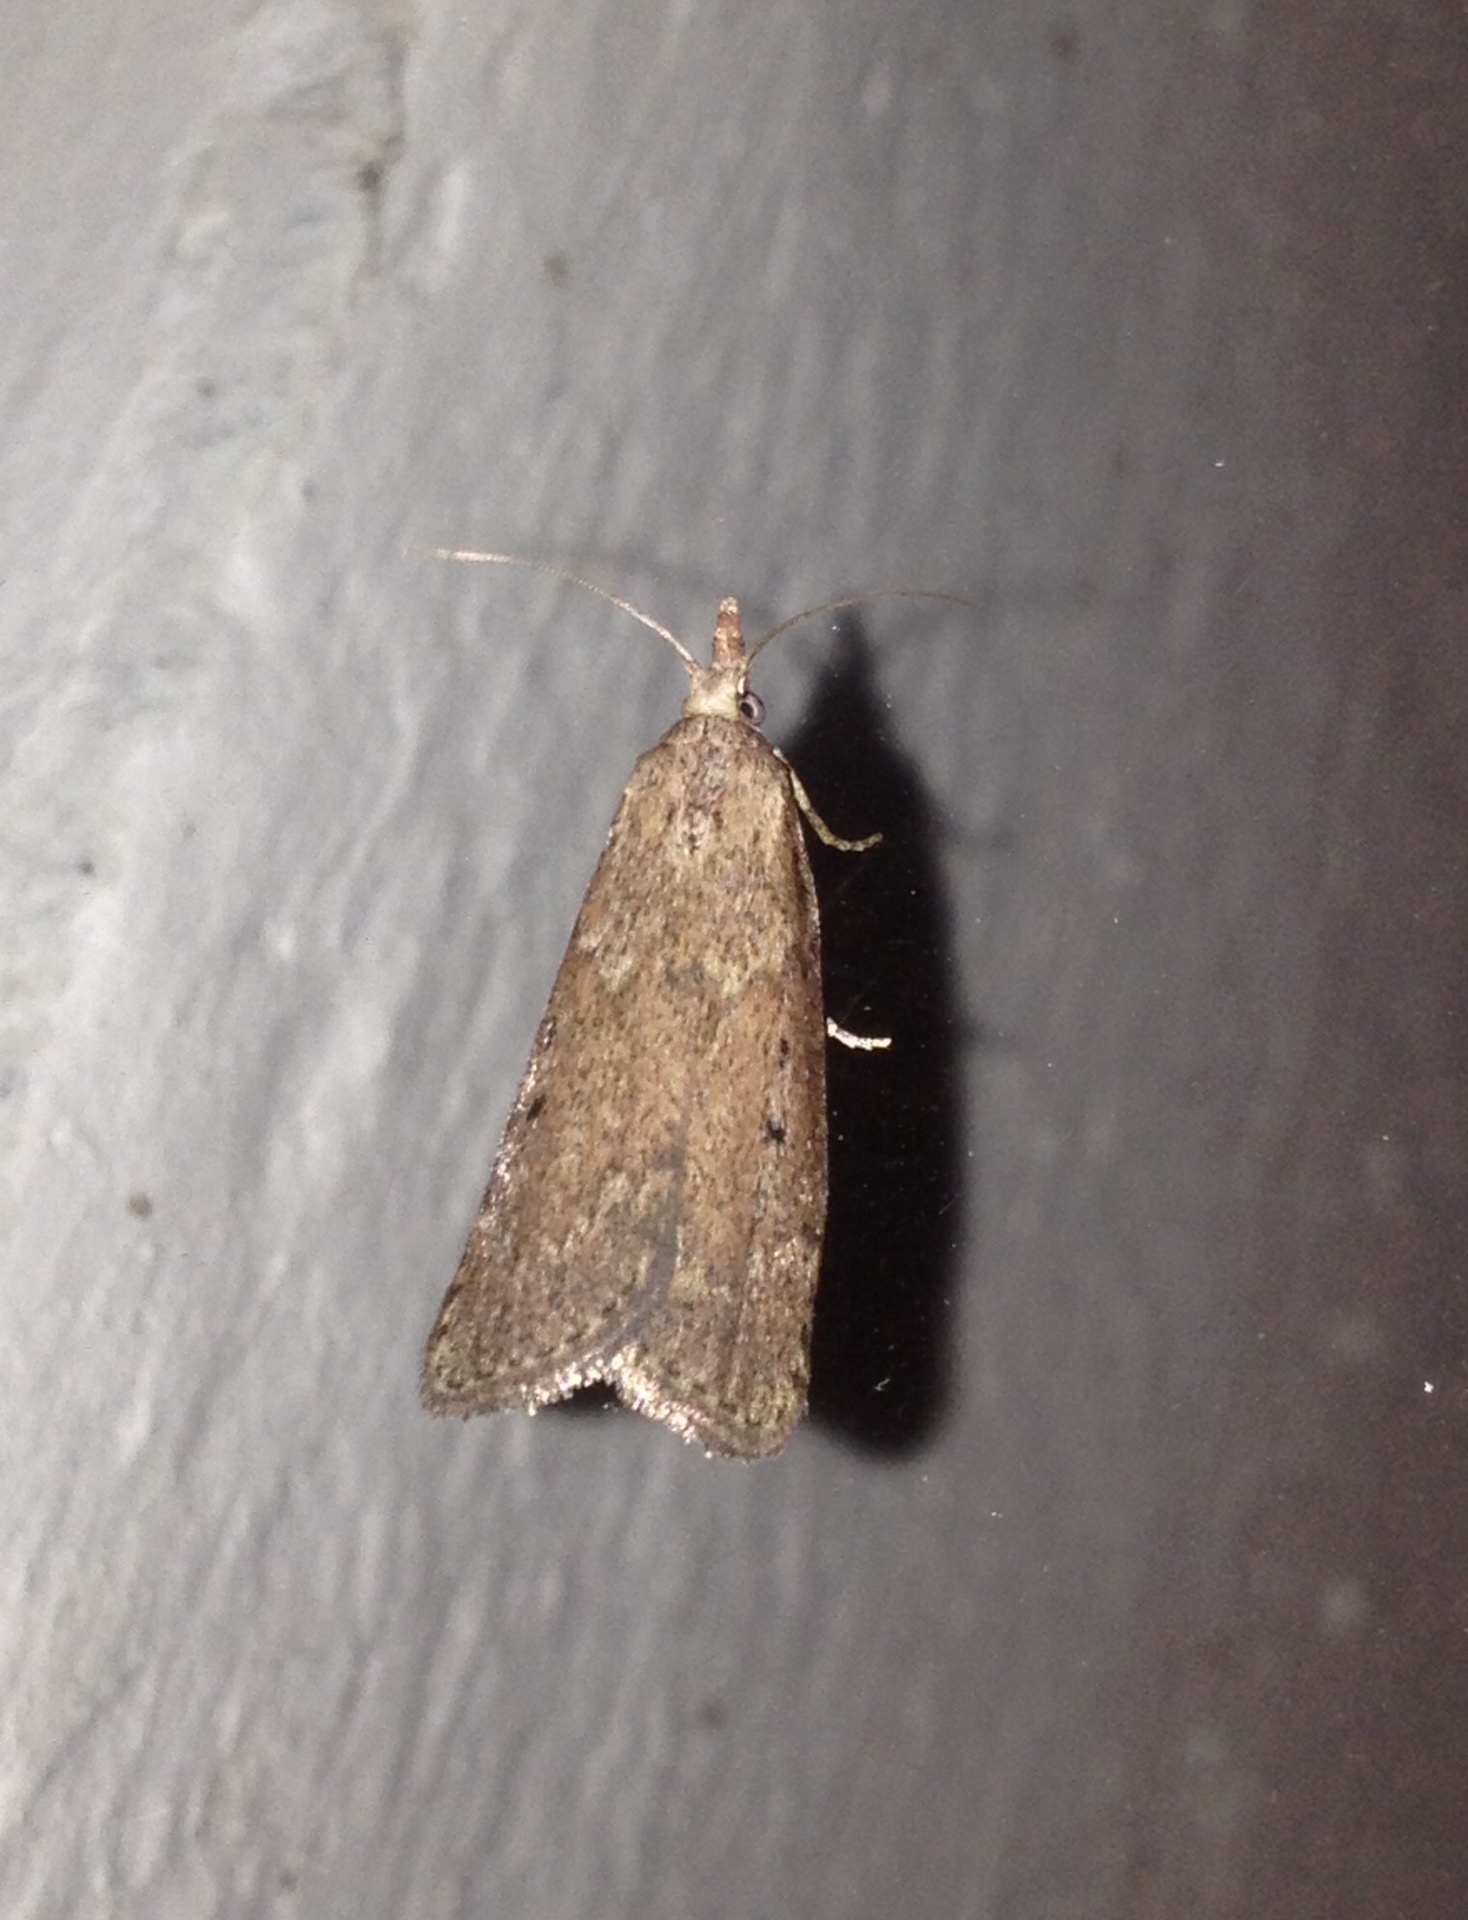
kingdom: Animalia
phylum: Arthropoda
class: Insecta
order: Lepidoptera
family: Pyralidae
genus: Aphomia
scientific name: Aphomia sociella
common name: Bee moth
